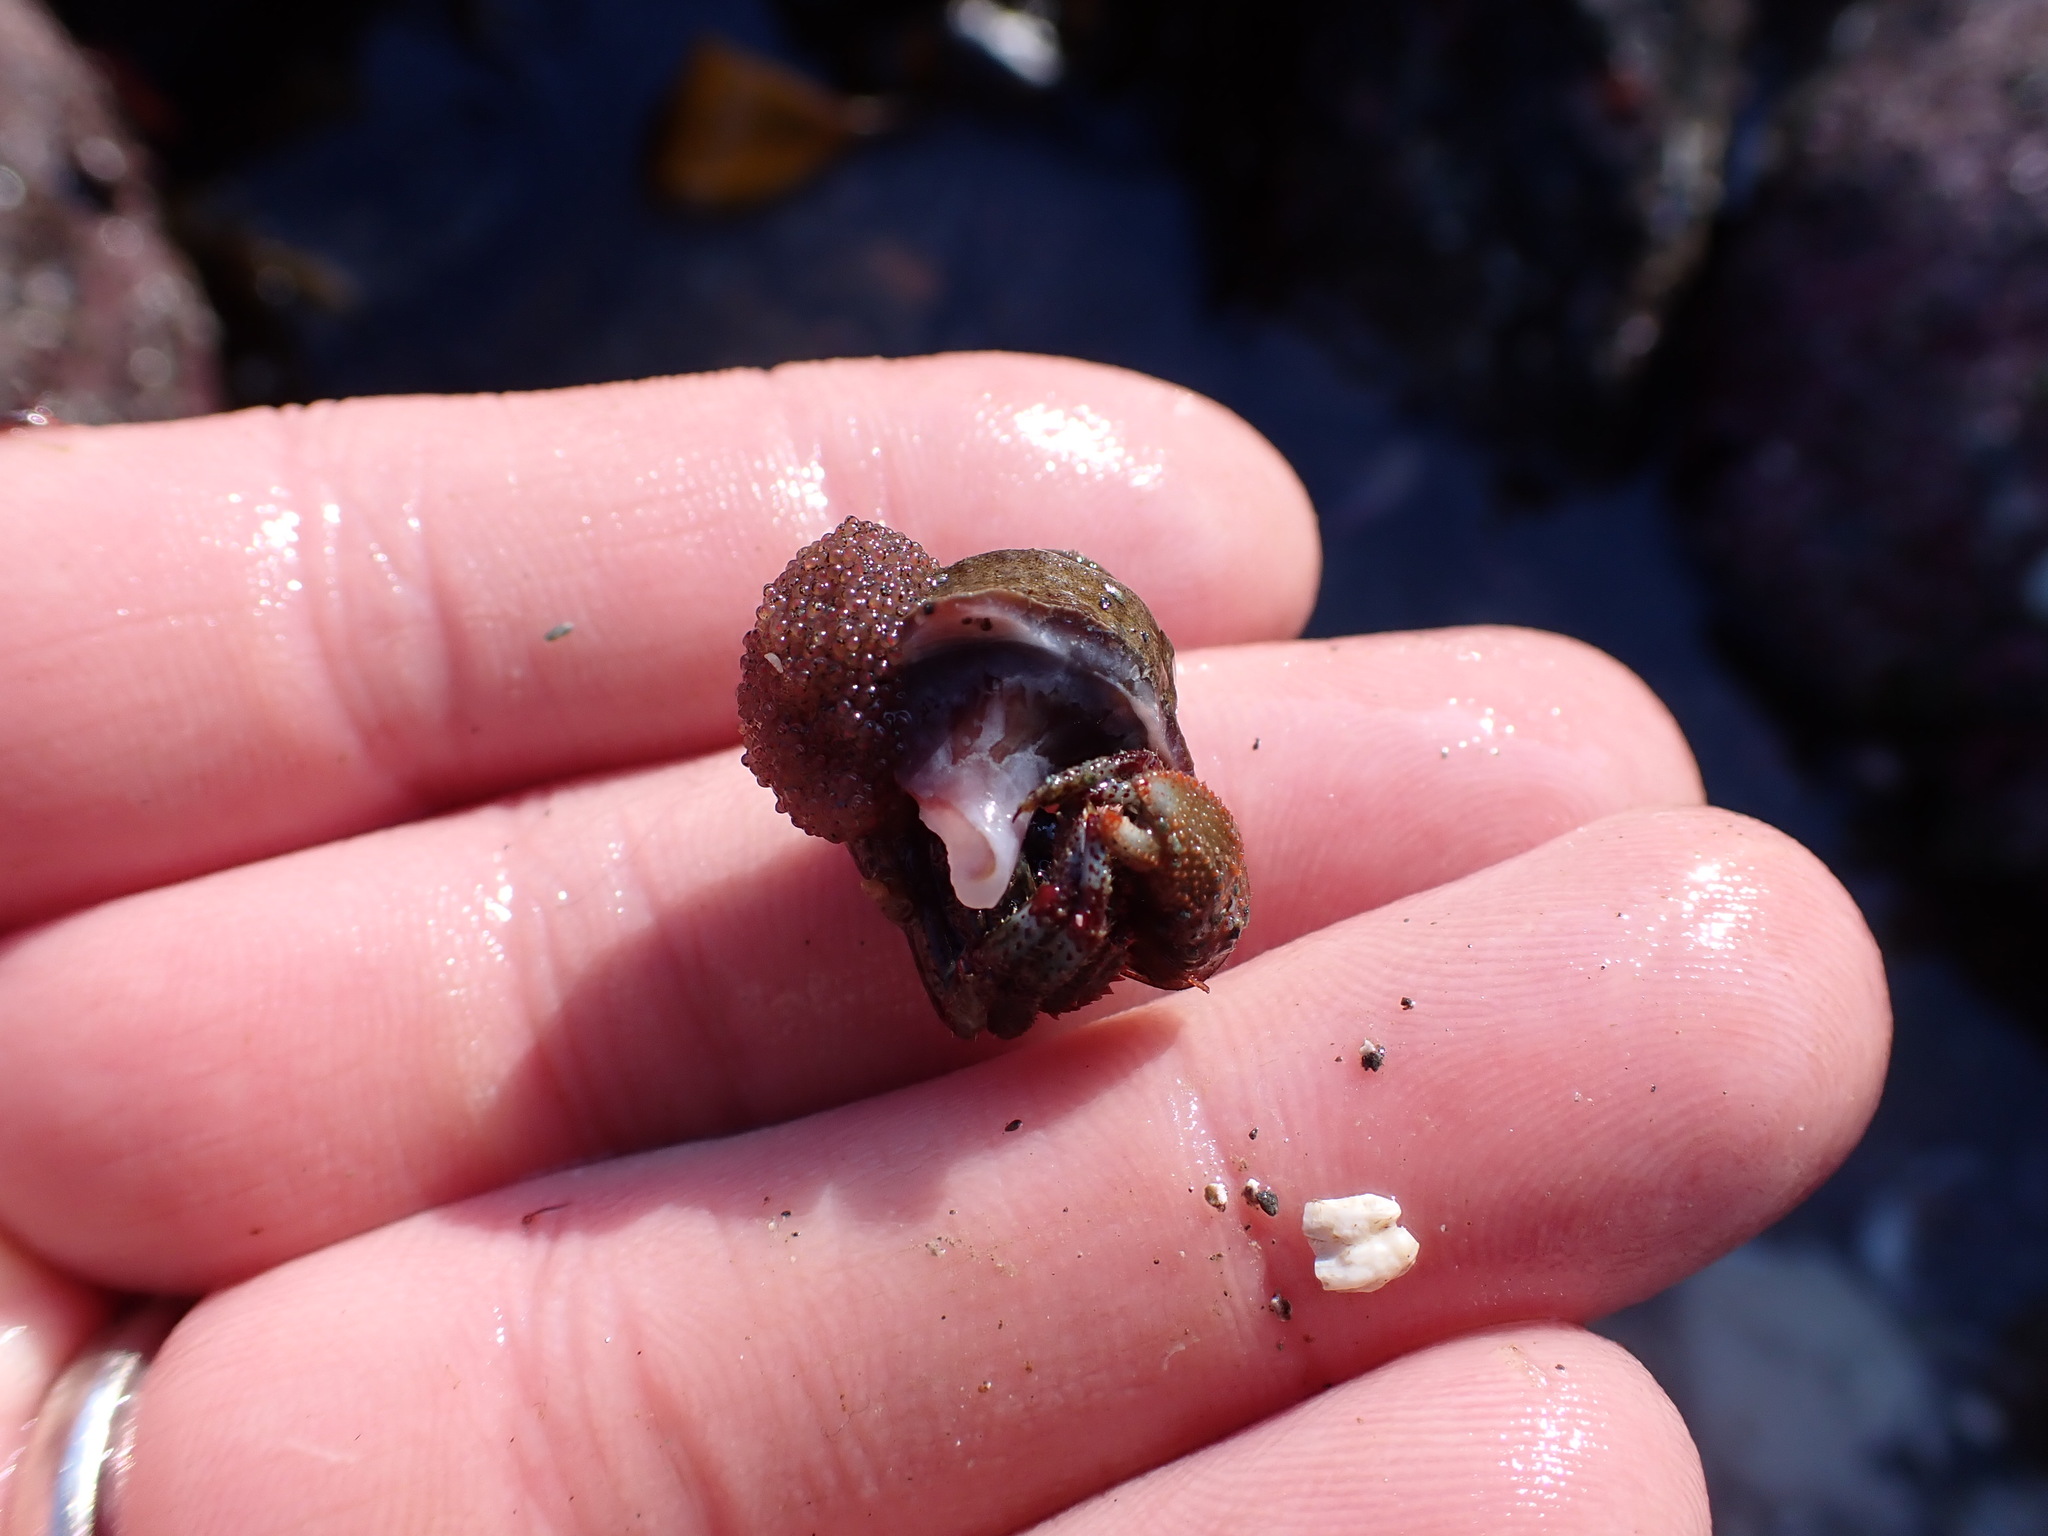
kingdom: Animalia
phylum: Arthropoda
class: Malacostraca
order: Decapoda
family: Paguridae
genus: Pagurus
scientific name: Pagurus beringanus
